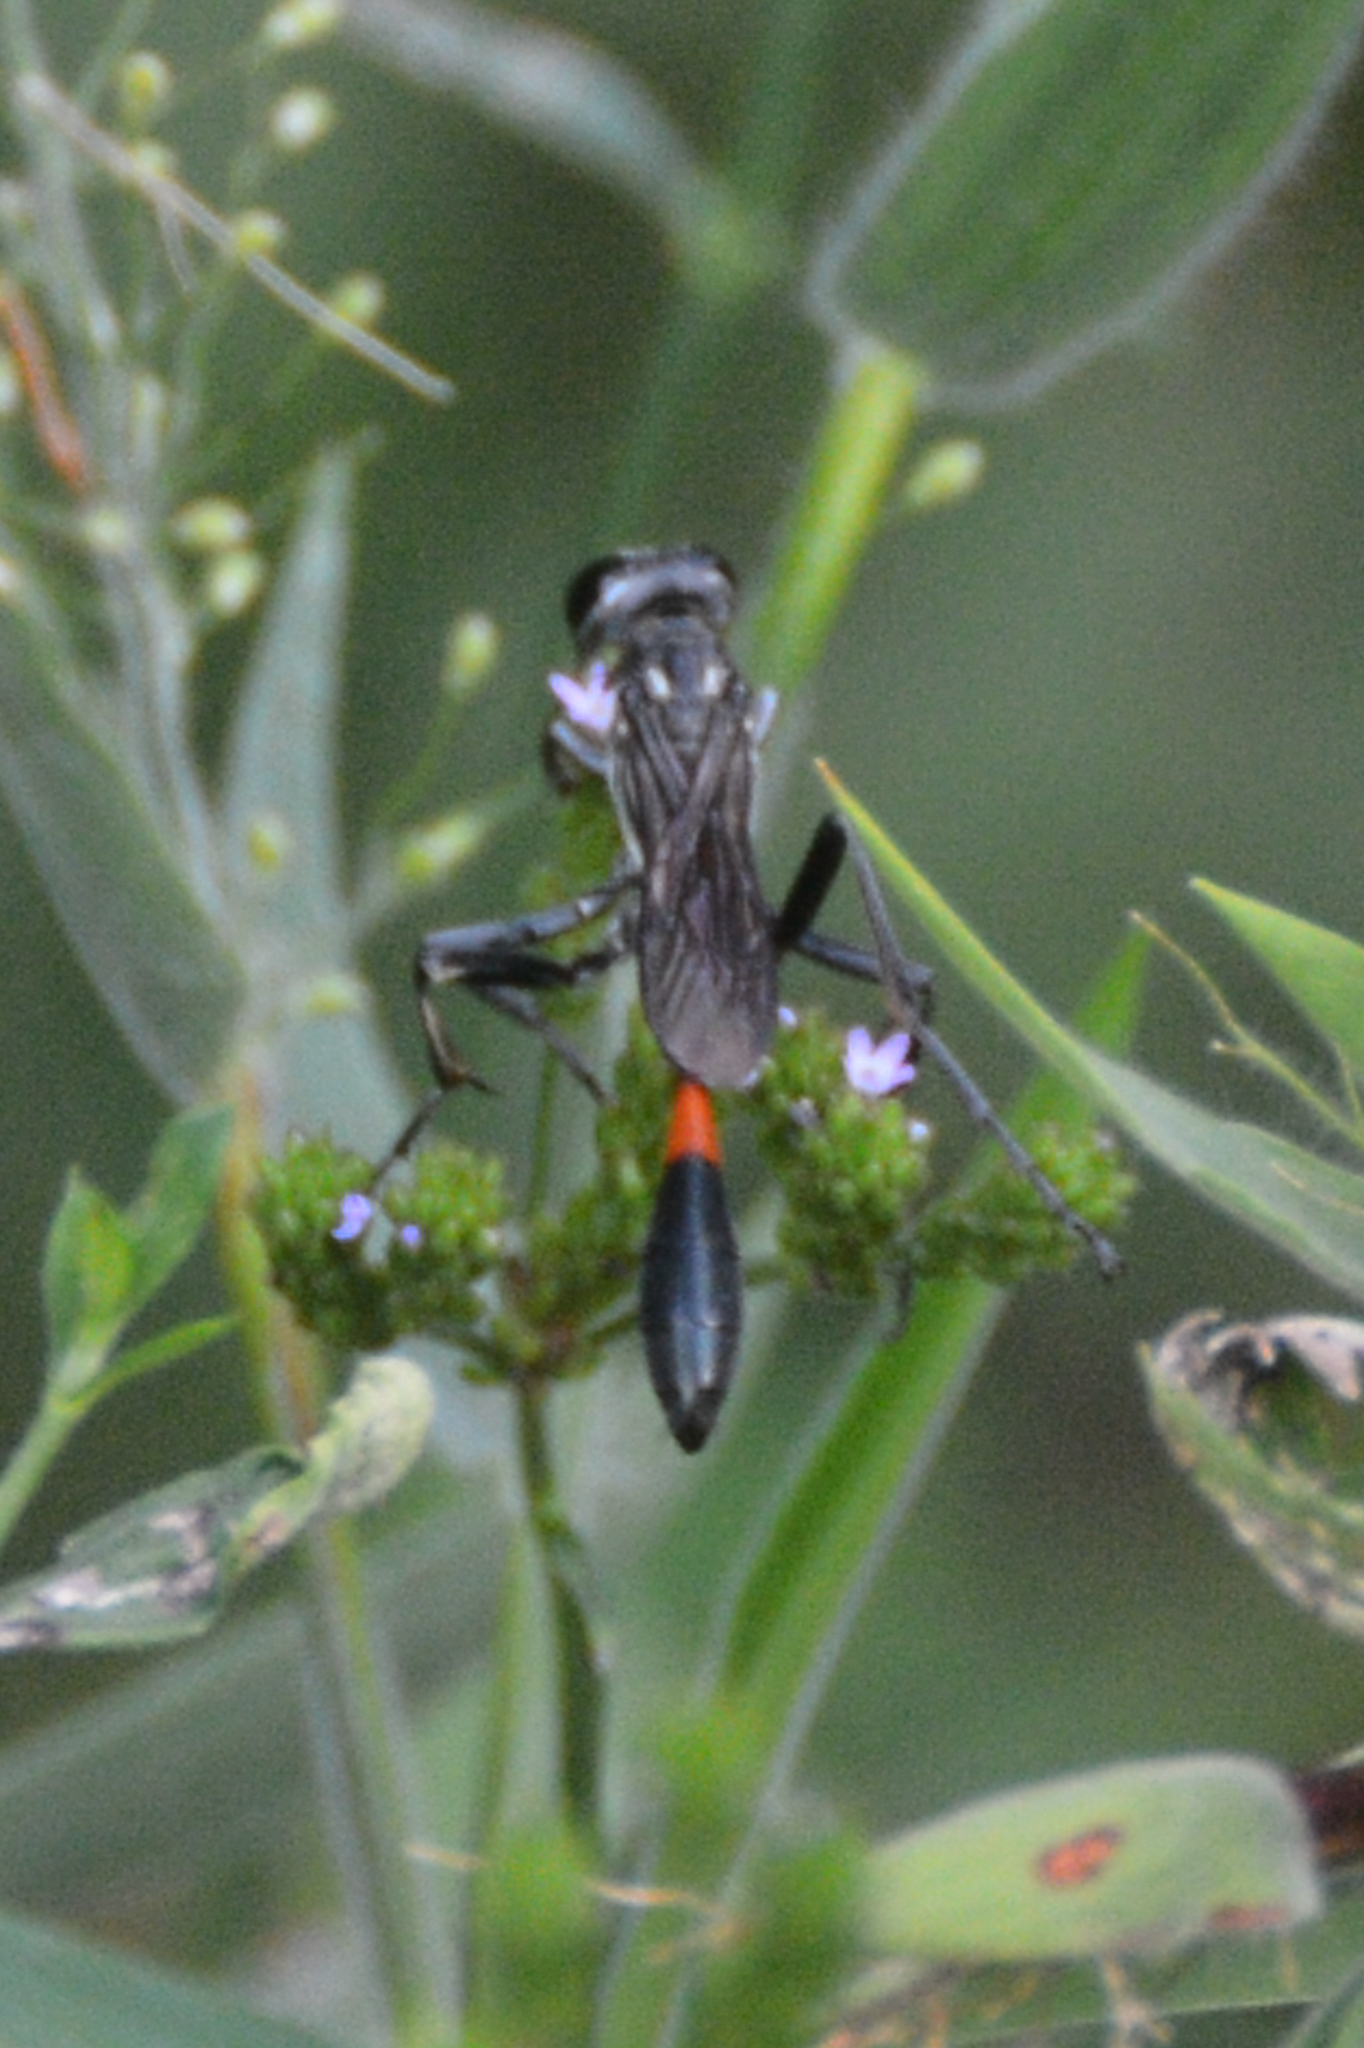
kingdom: Animalia
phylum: Arthropoda
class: Insecta
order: Hymenoptera
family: Sphecidae
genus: Ammophila
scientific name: Ammophila procera
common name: Common thread-waisted wasp
